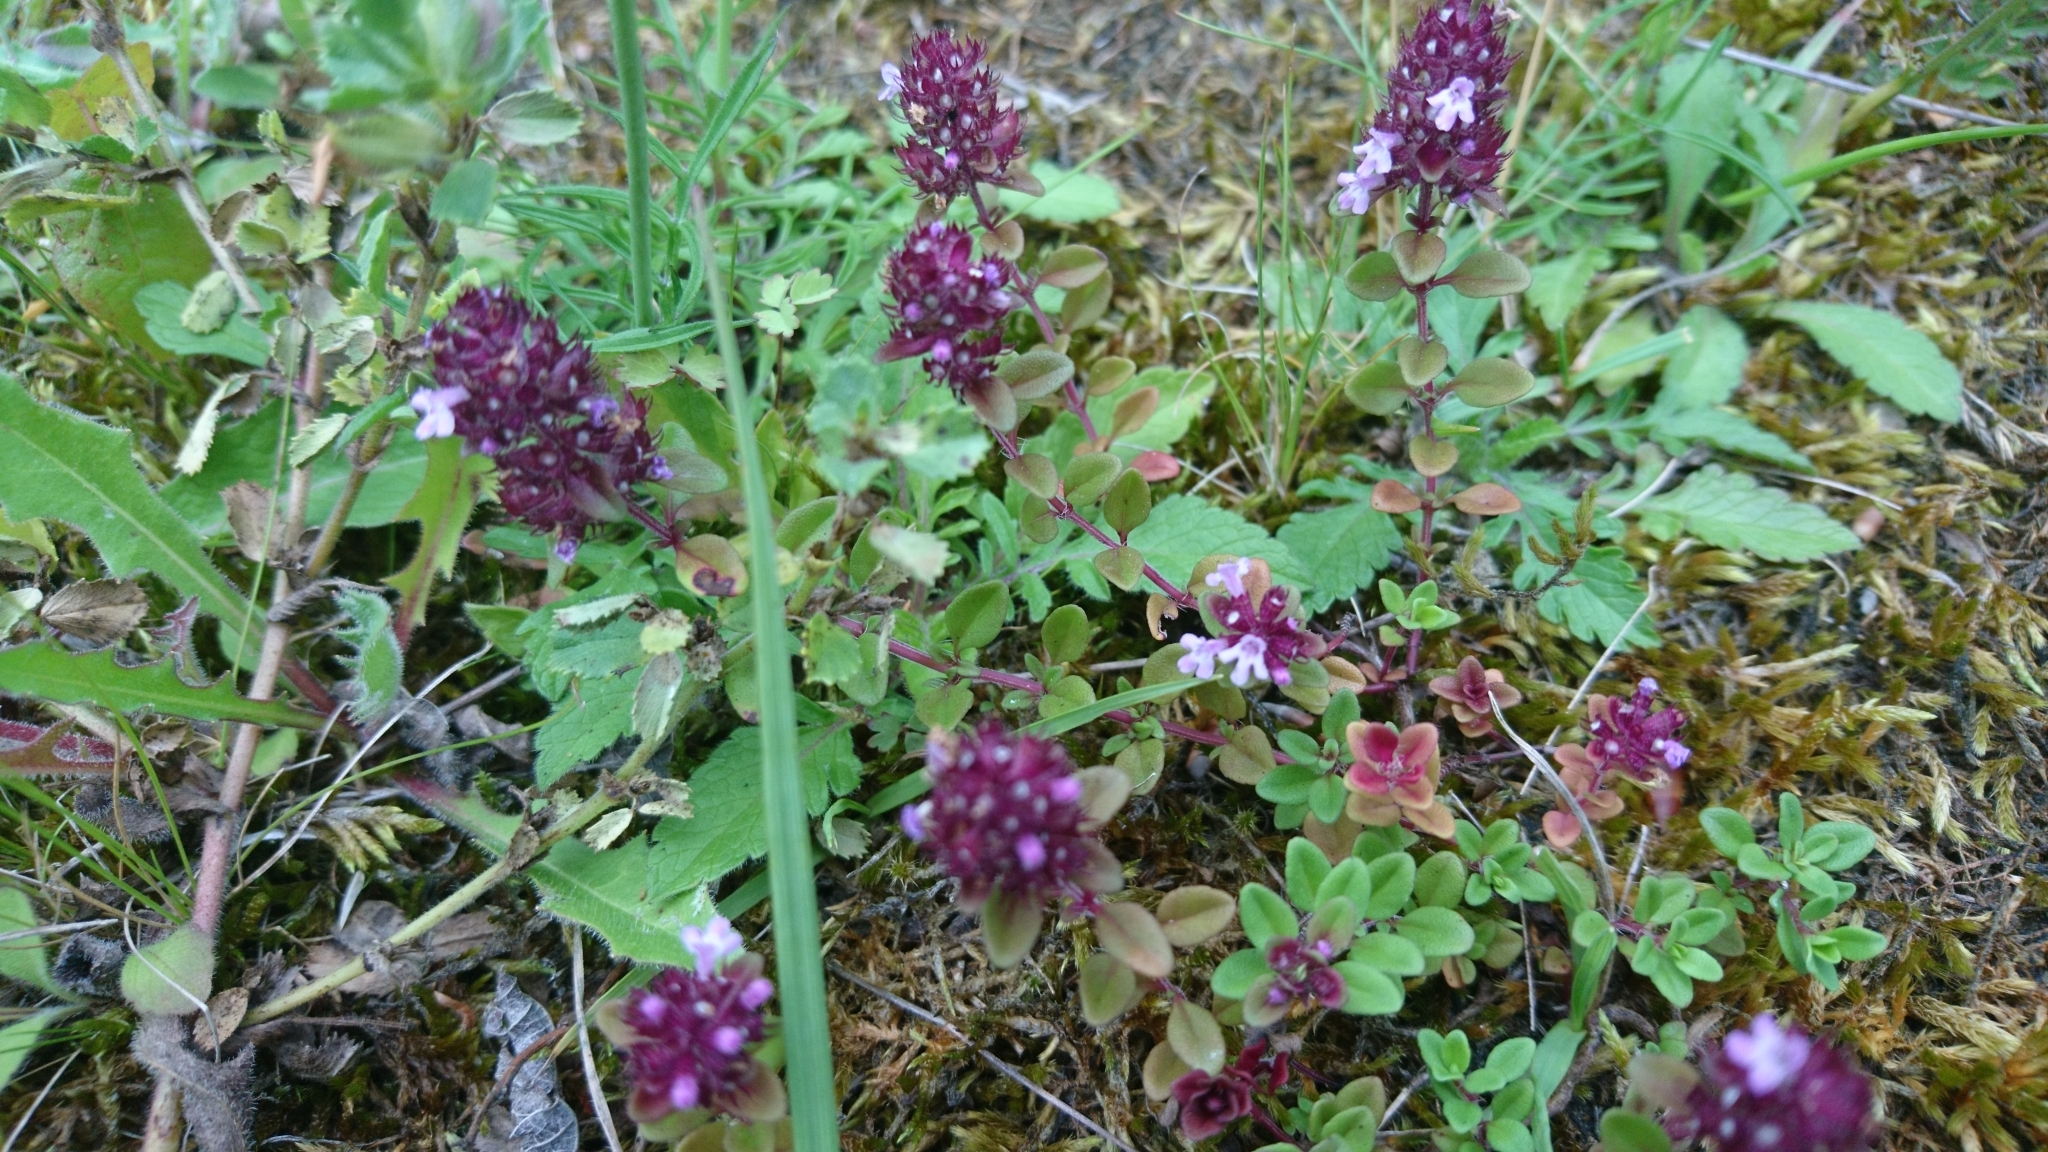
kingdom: Plantae
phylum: Tracheophyta
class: Magnoliopsida
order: Lamiales
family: Lamiaceae
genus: Thymus
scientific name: Thymus pulegioides
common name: Large thyme
